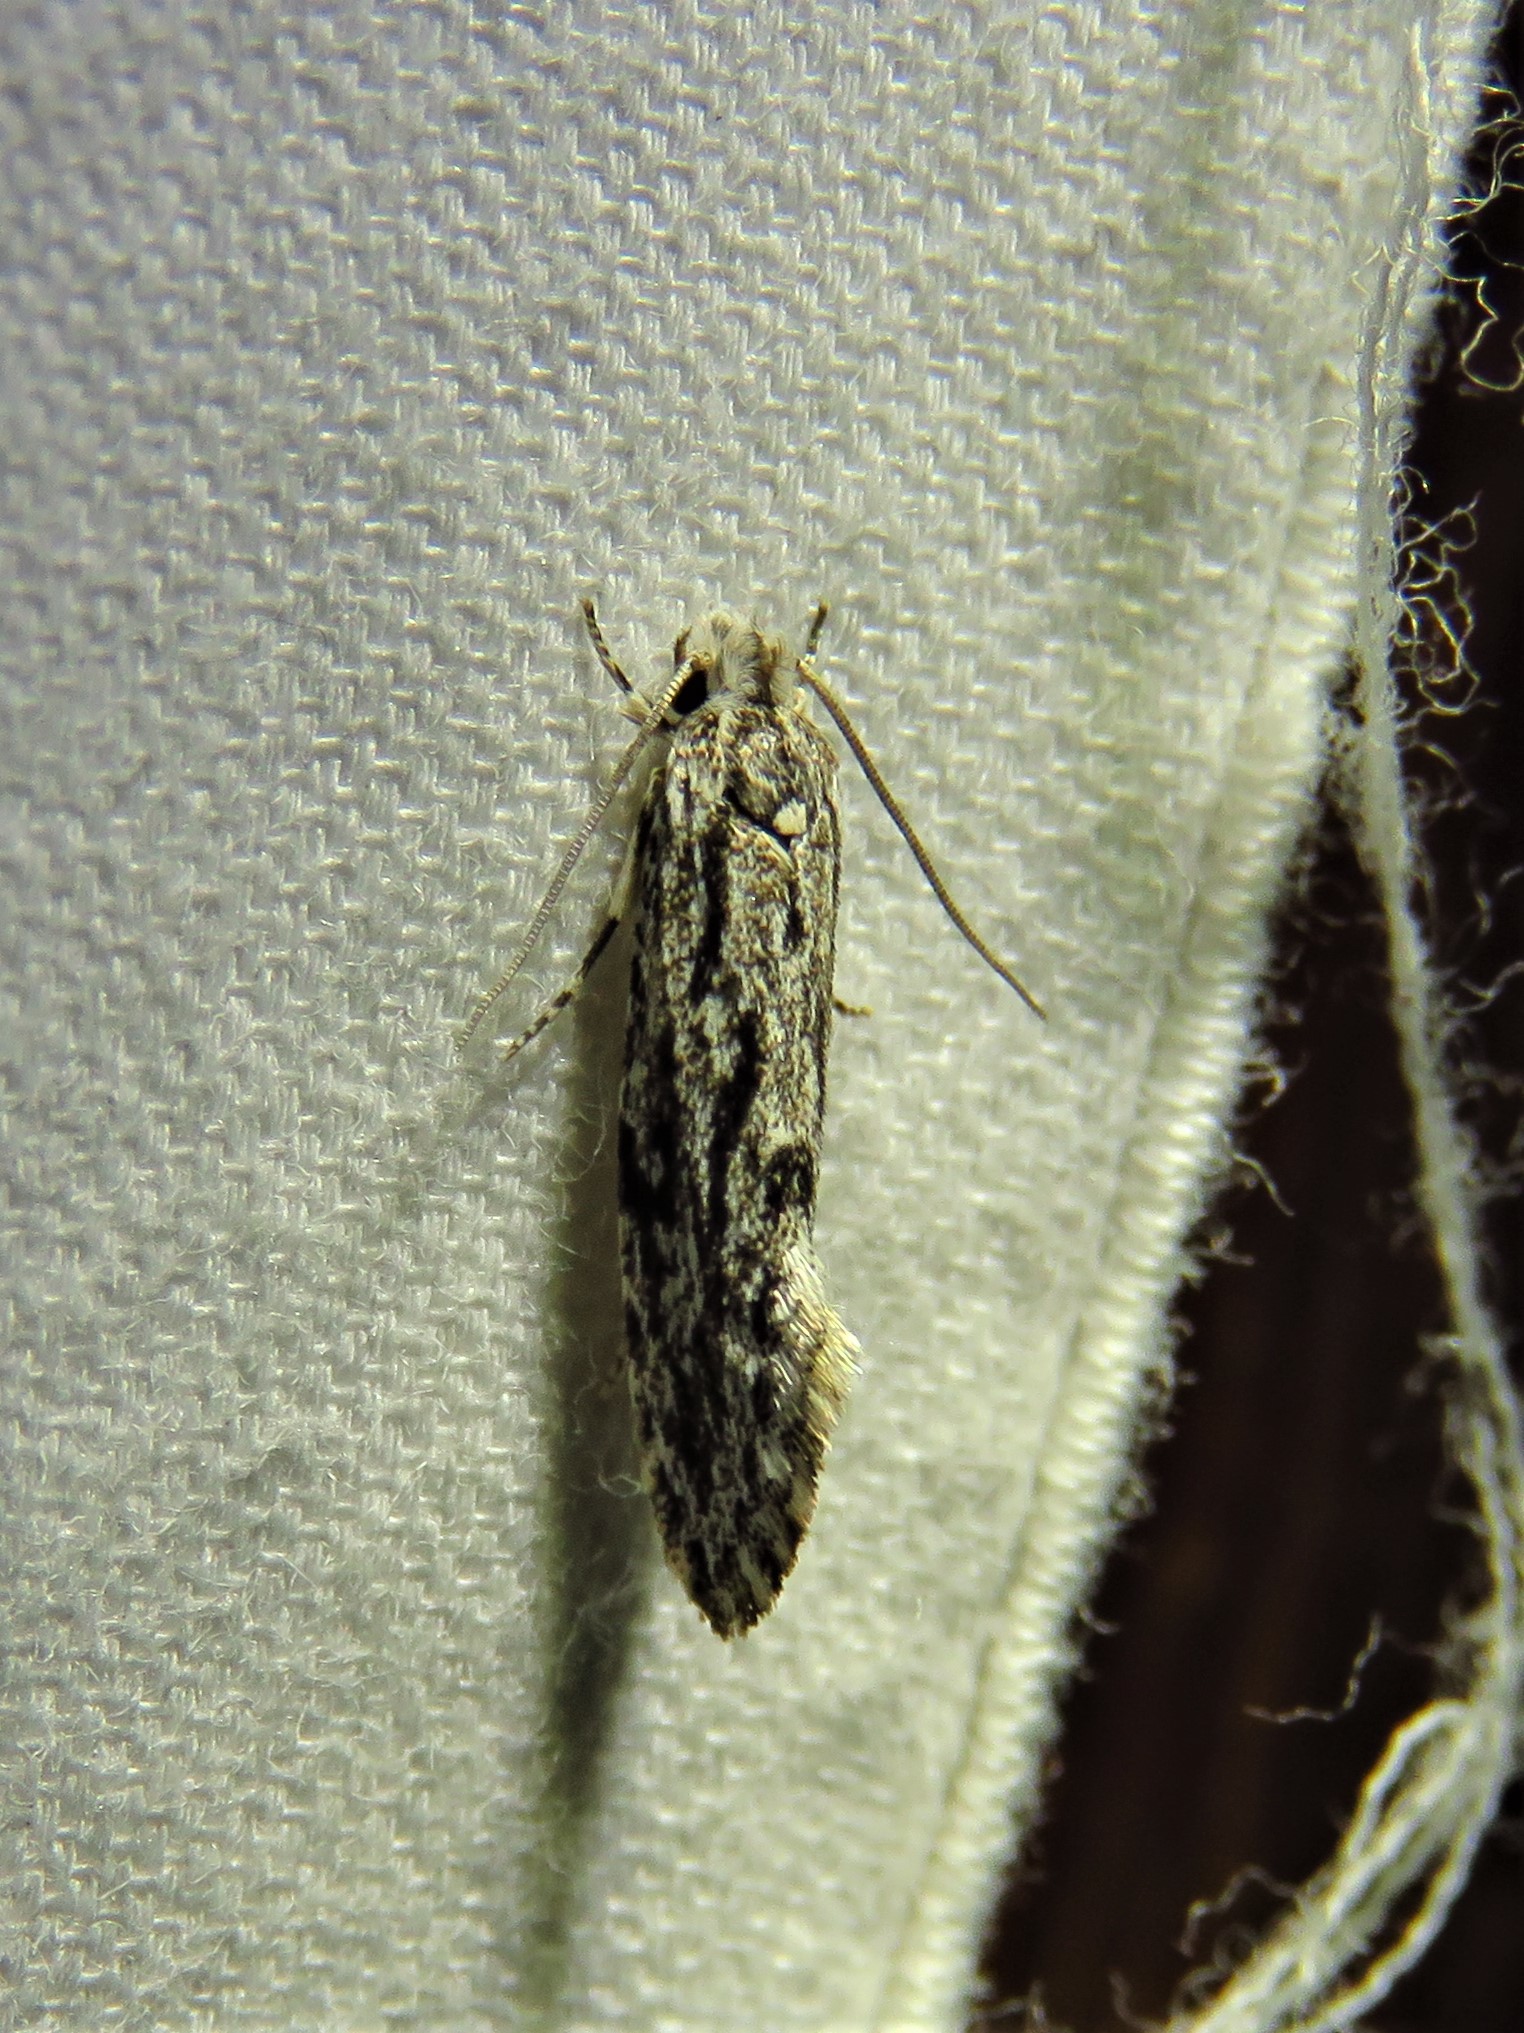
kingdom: Animalia
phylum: Arthropoda
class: Insecta
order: Lepidoptera
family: Tineidae
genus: Nemapogon
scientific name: Nemapogon multistriatella
